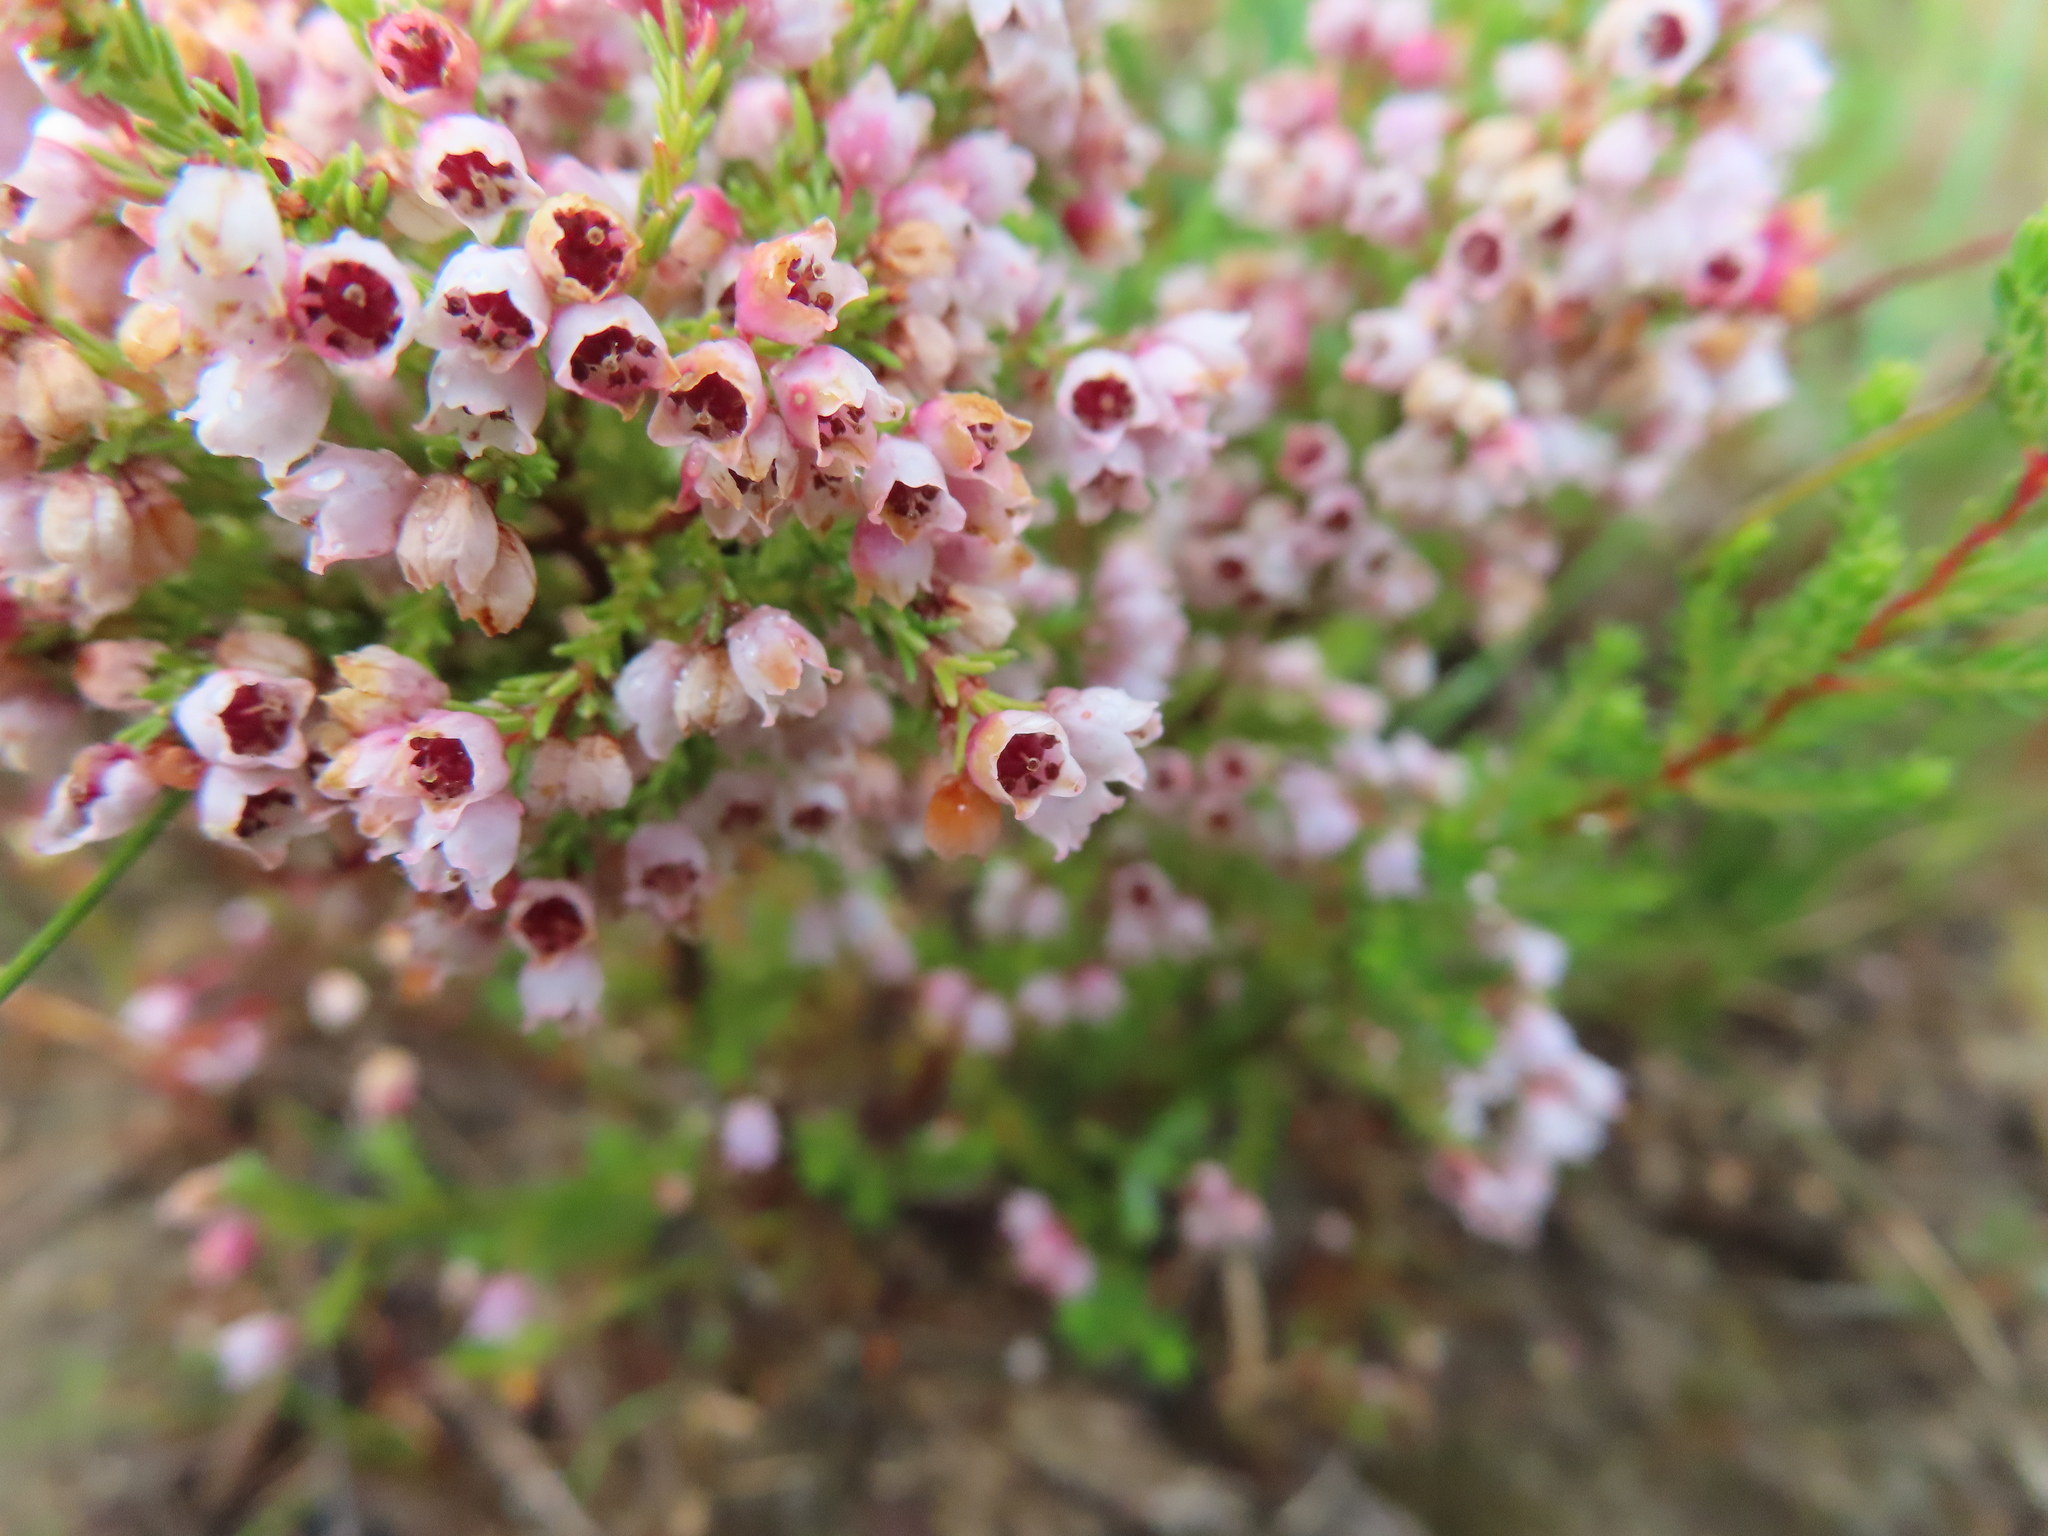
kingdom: Plantae
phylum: Tracheophyta
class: Magnoliopsida
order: Ericales
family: Ericaceae
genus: Erica
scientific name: Erica mauritanica
